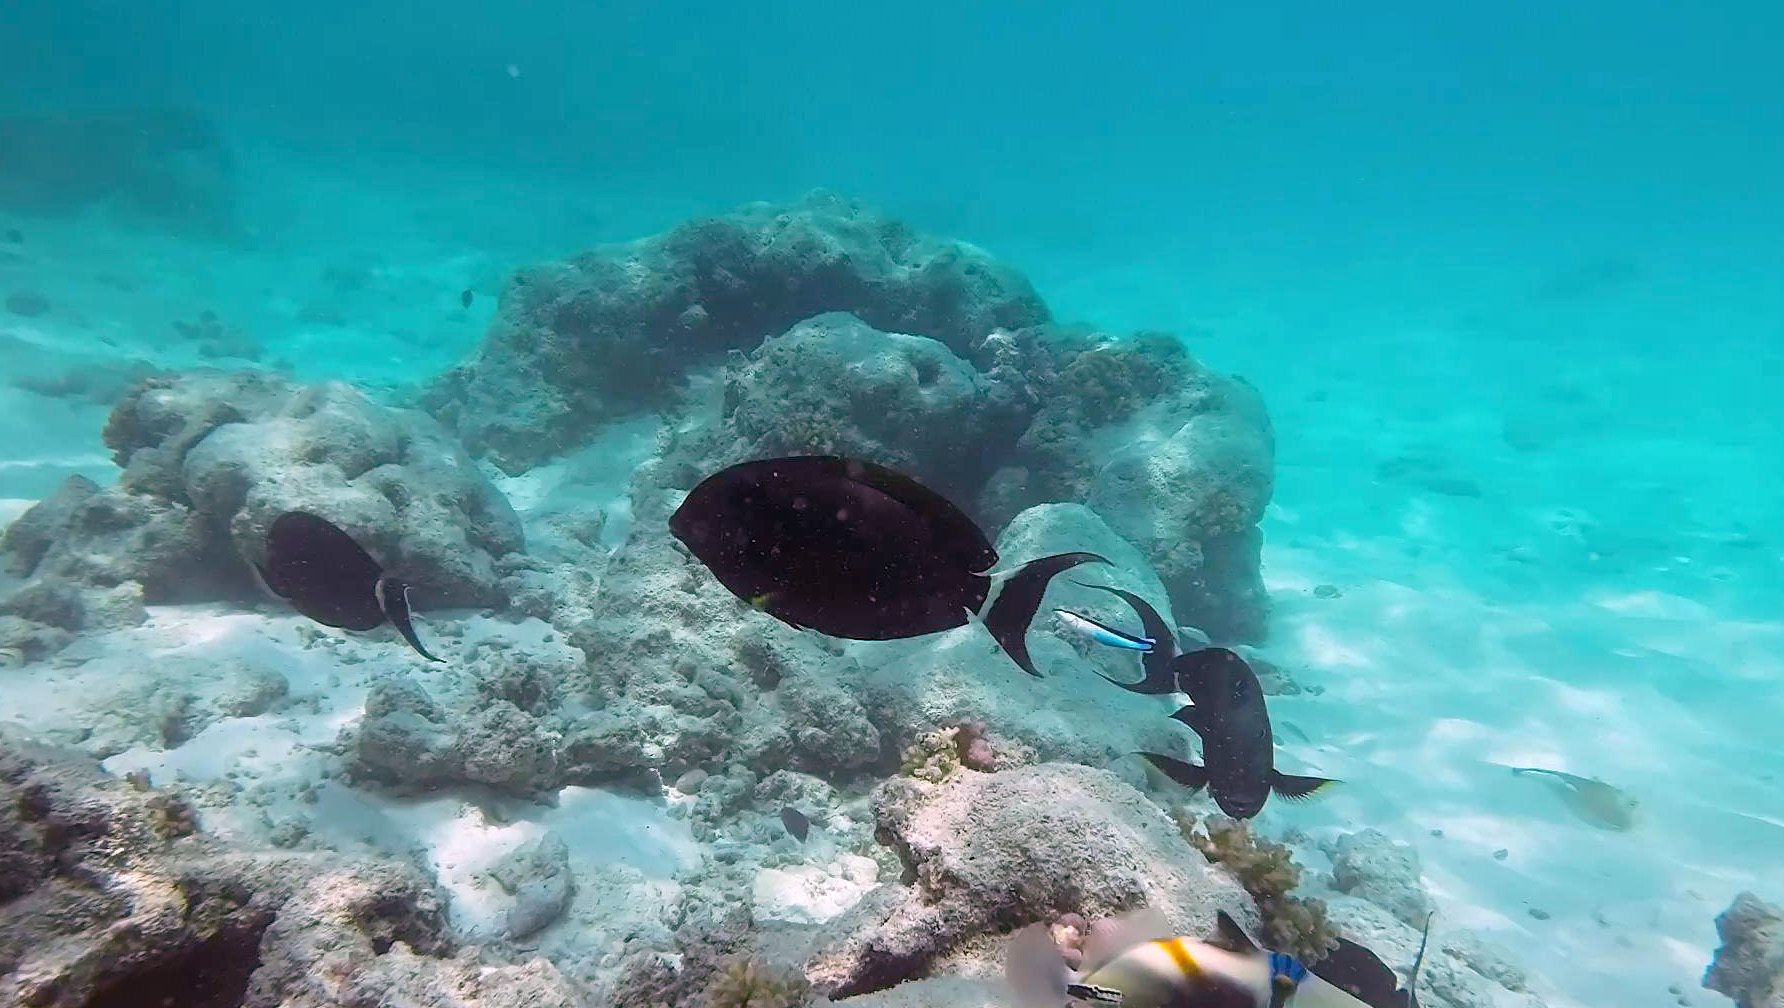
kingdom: Animalia
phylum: Chordata
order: Perciformes
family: Acanthuridae
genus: Acanthurus
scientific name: Acanthurus nigricauda
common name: Black-barred surgeonfish
